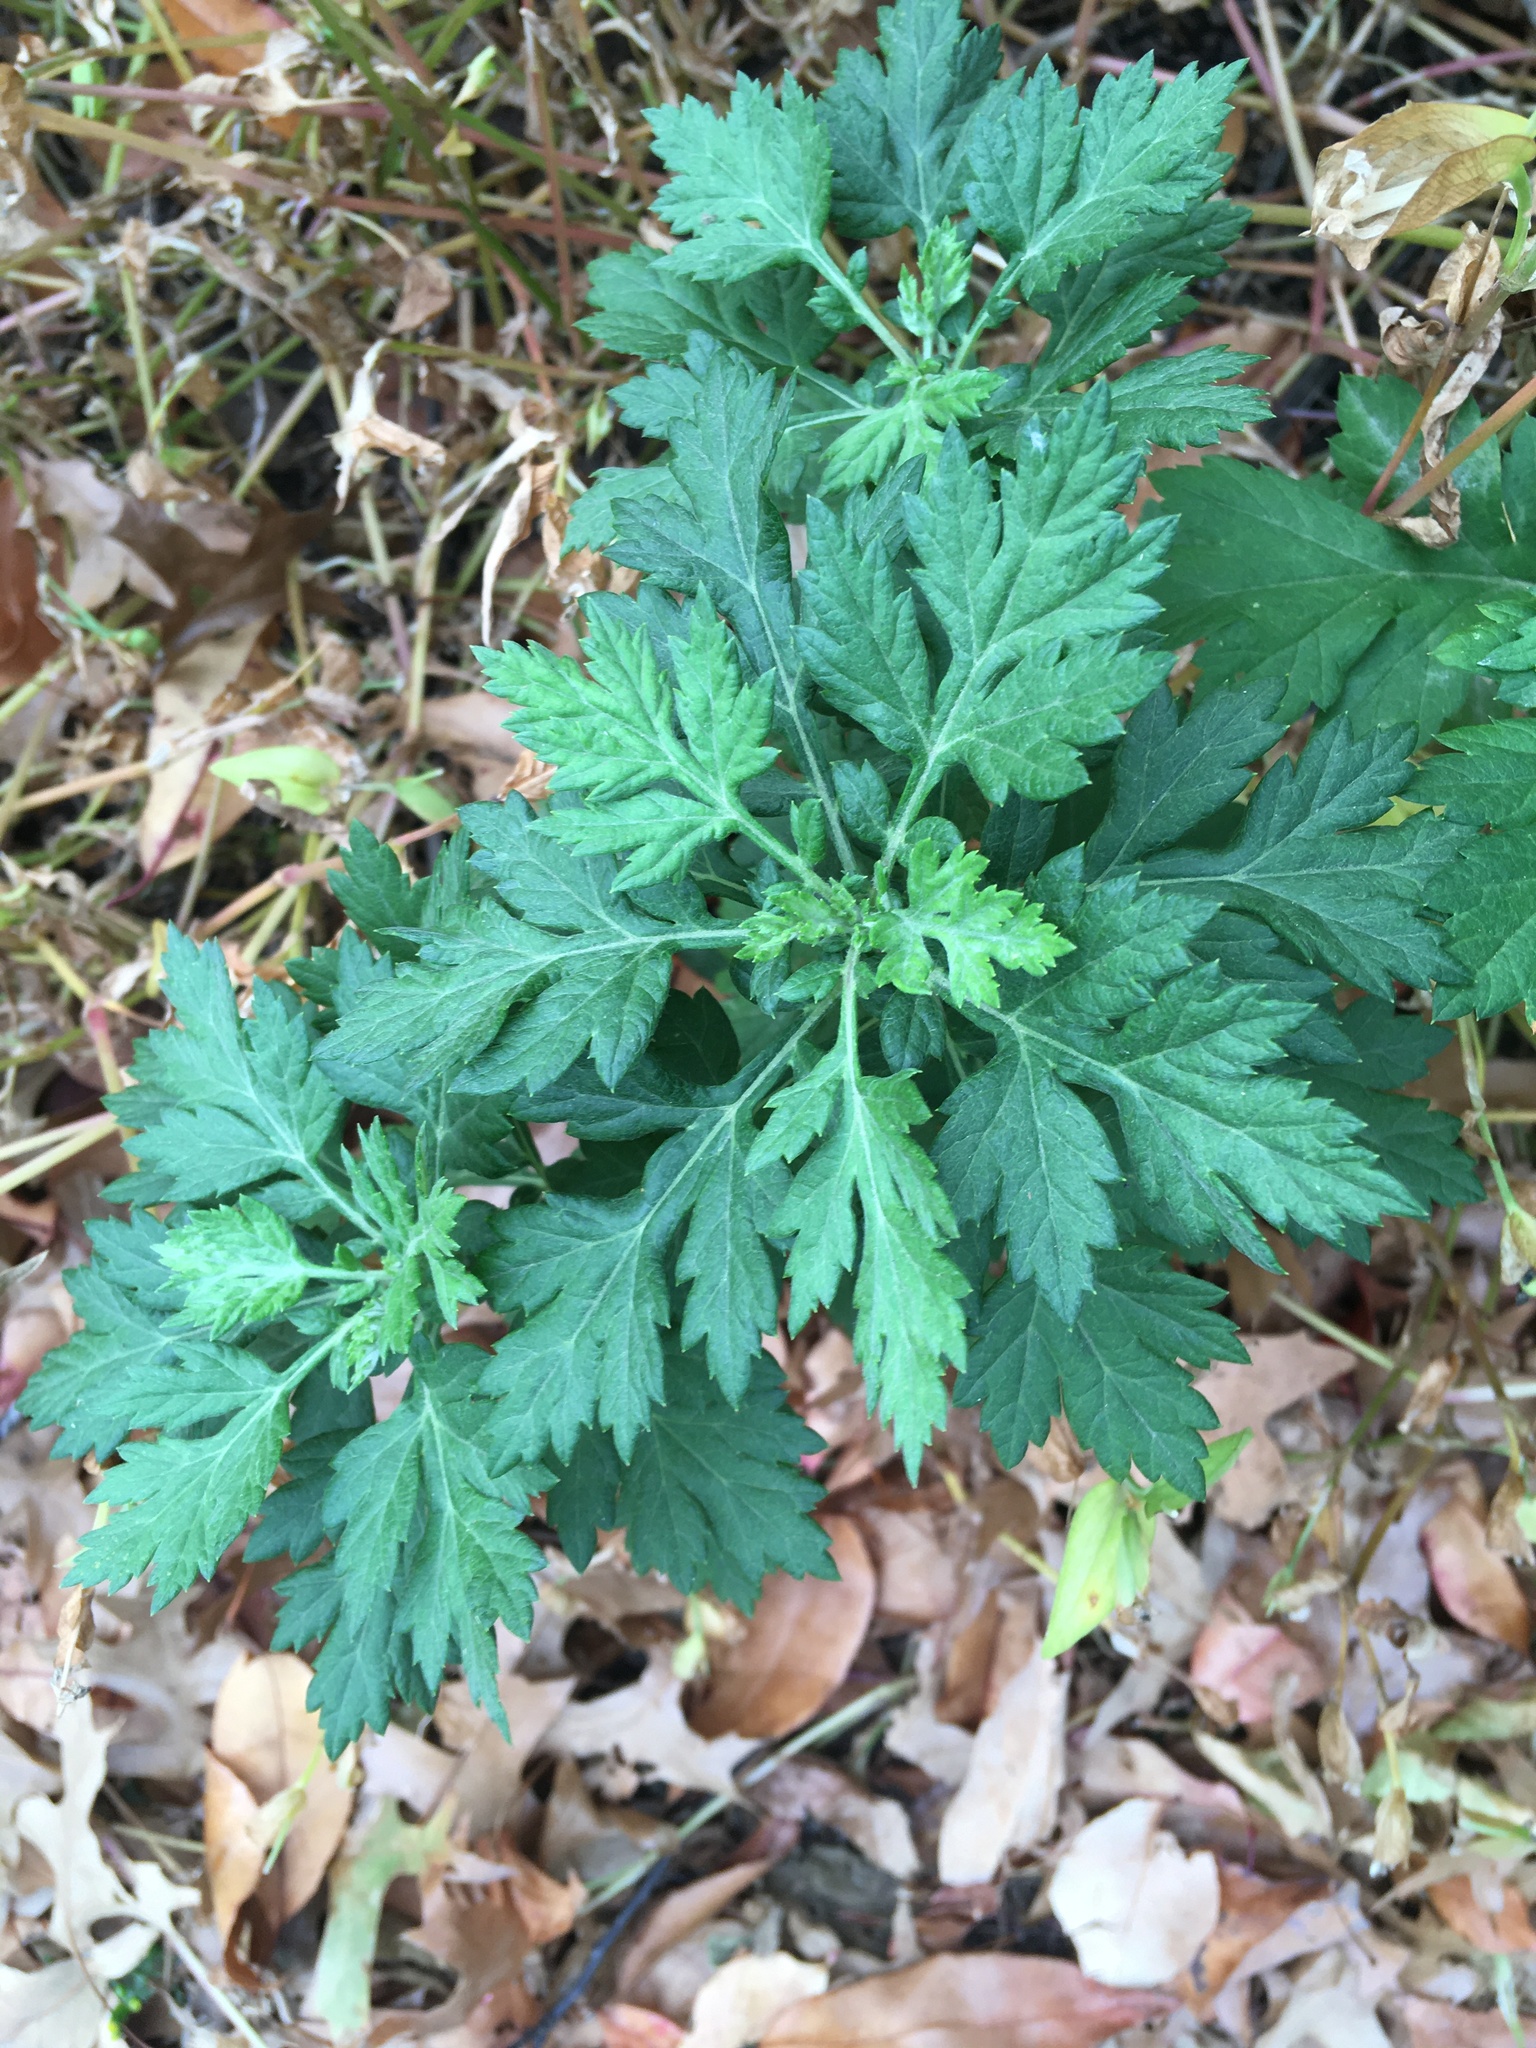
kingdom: Plantae
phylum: Tracheophyta
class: Magnoliopsida
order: Asterales
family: Asteraceae
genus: Artemisia
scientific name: Artemisia vulgaris
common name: Mugwort
